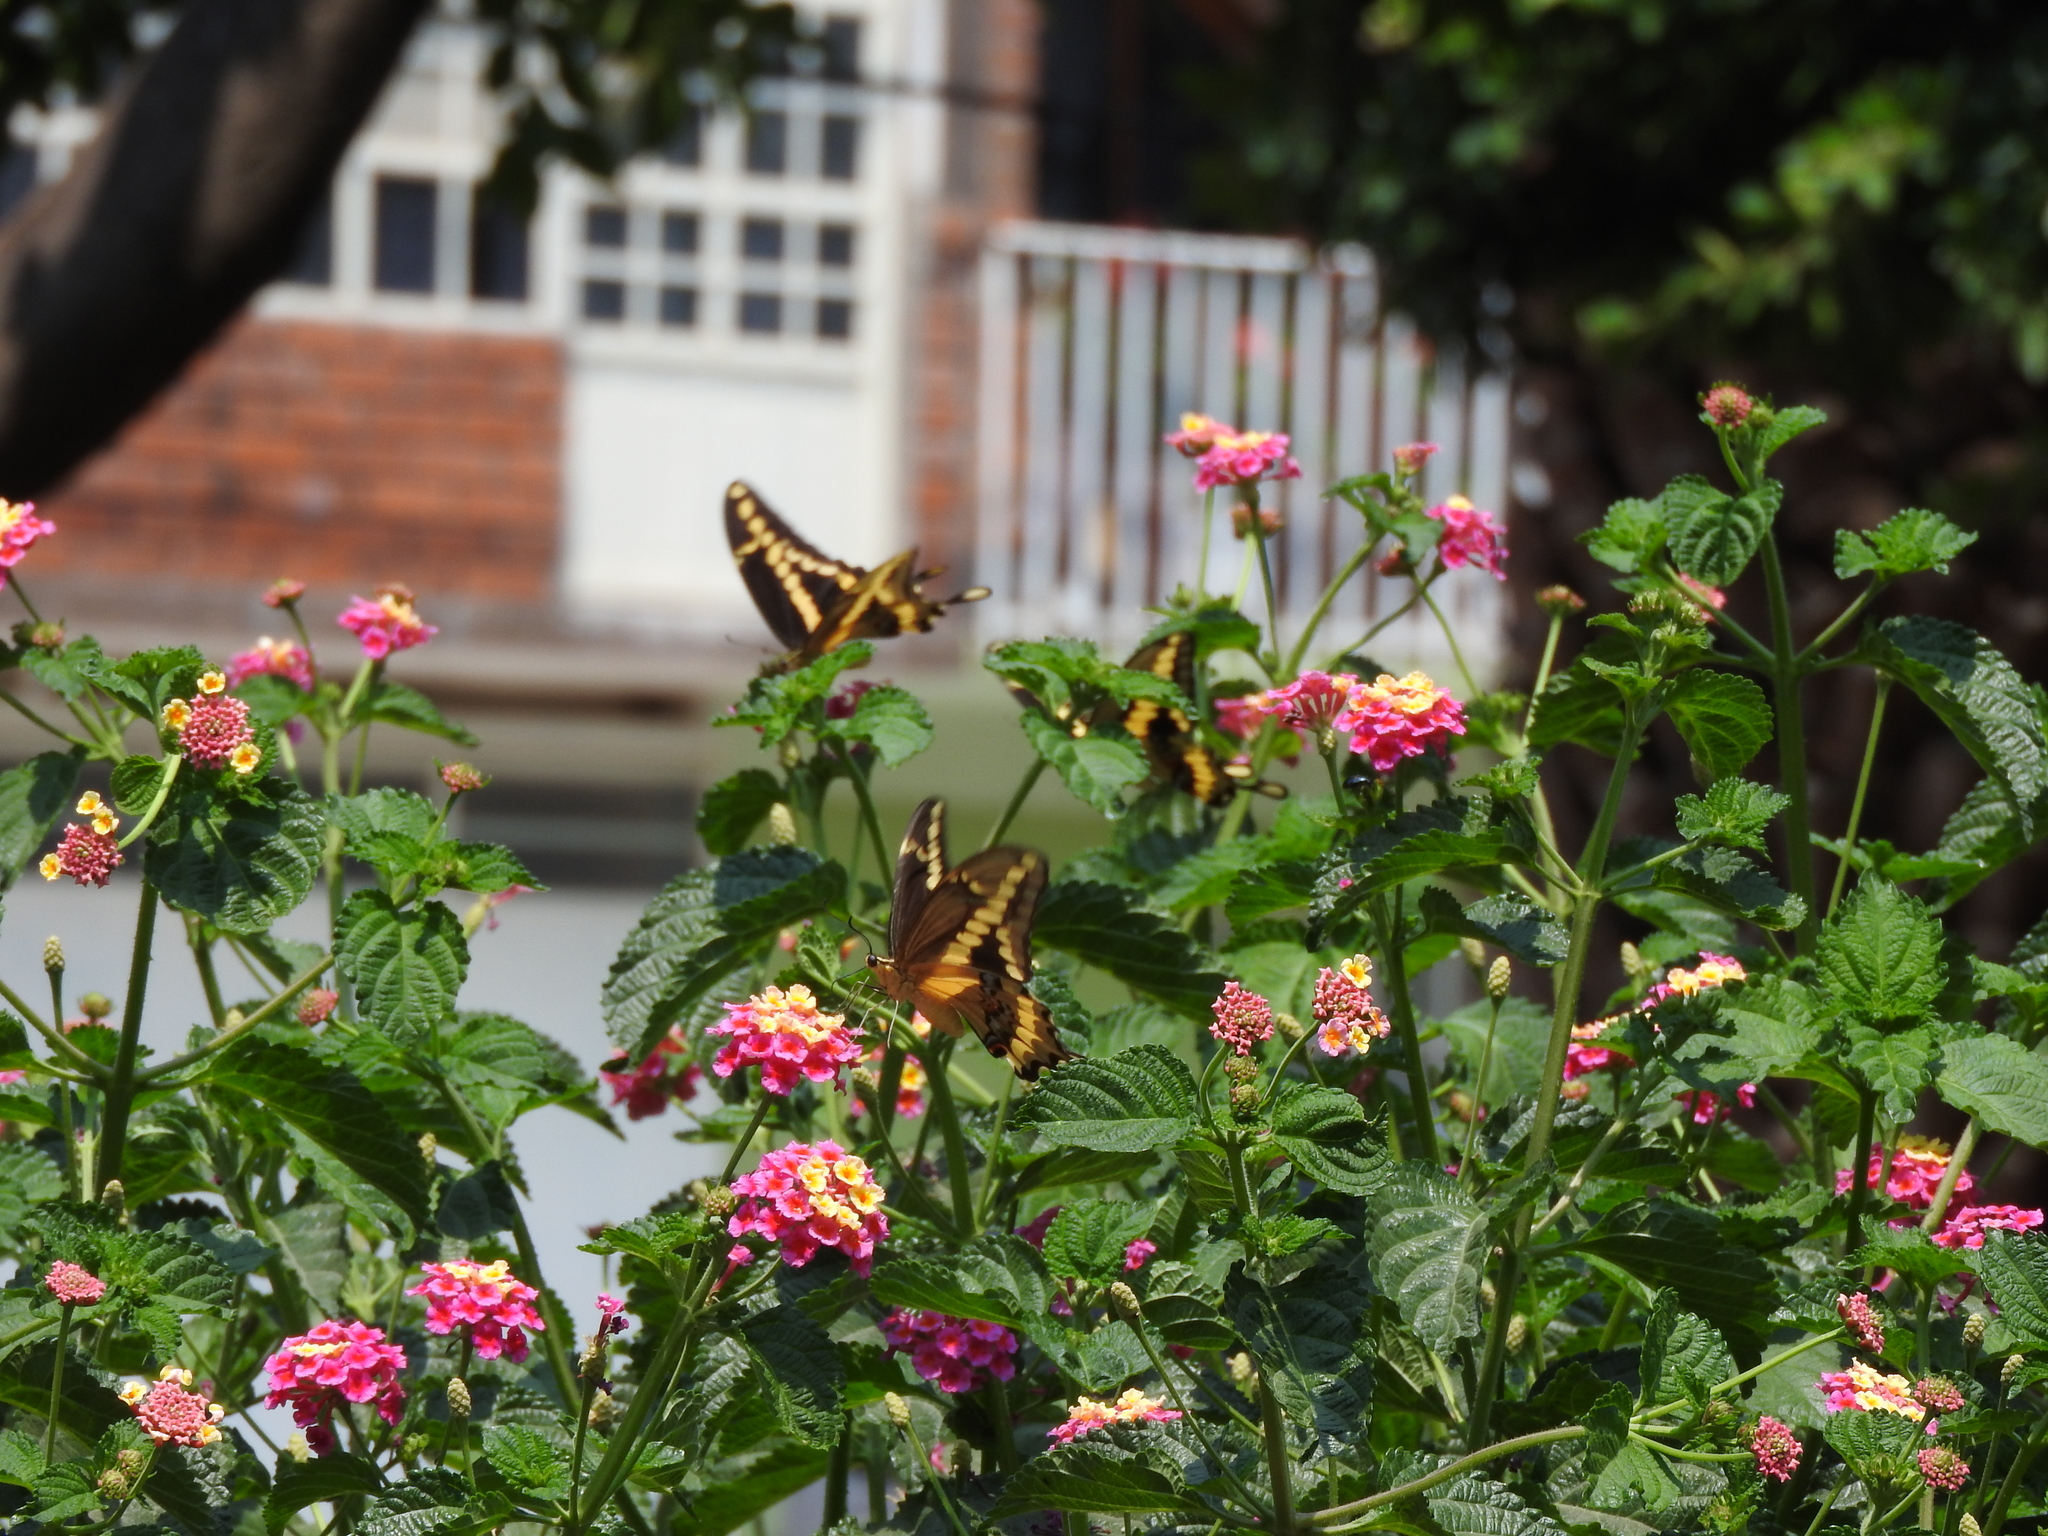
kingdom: Animalia
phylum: Arthropoda
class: Insecta
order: Lepidoptera
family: Papilionidae
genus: Papilio
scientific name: Papilio rumiko
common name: Western giant swallowtail
